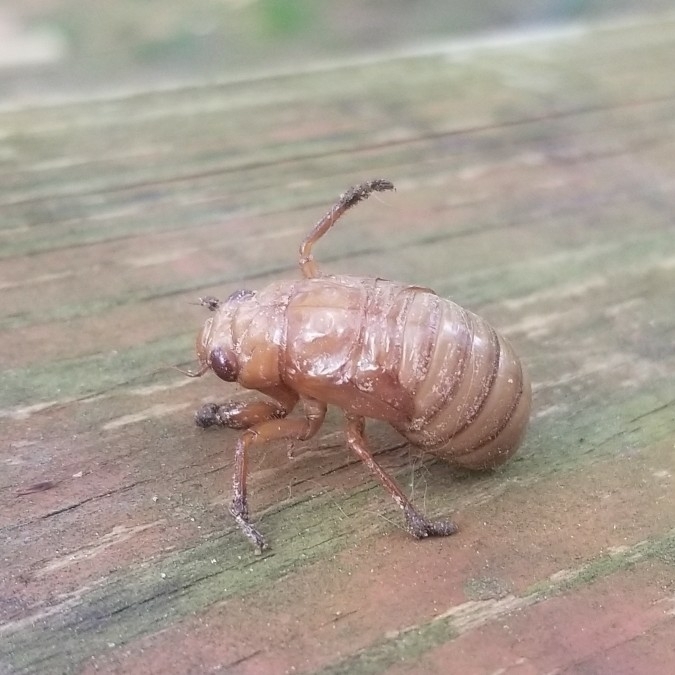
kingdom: Animalia
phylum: Arthropoda
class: Insecta
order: Hemiptera
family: Cicadidae
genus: Magicicada
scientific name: Magicicada
